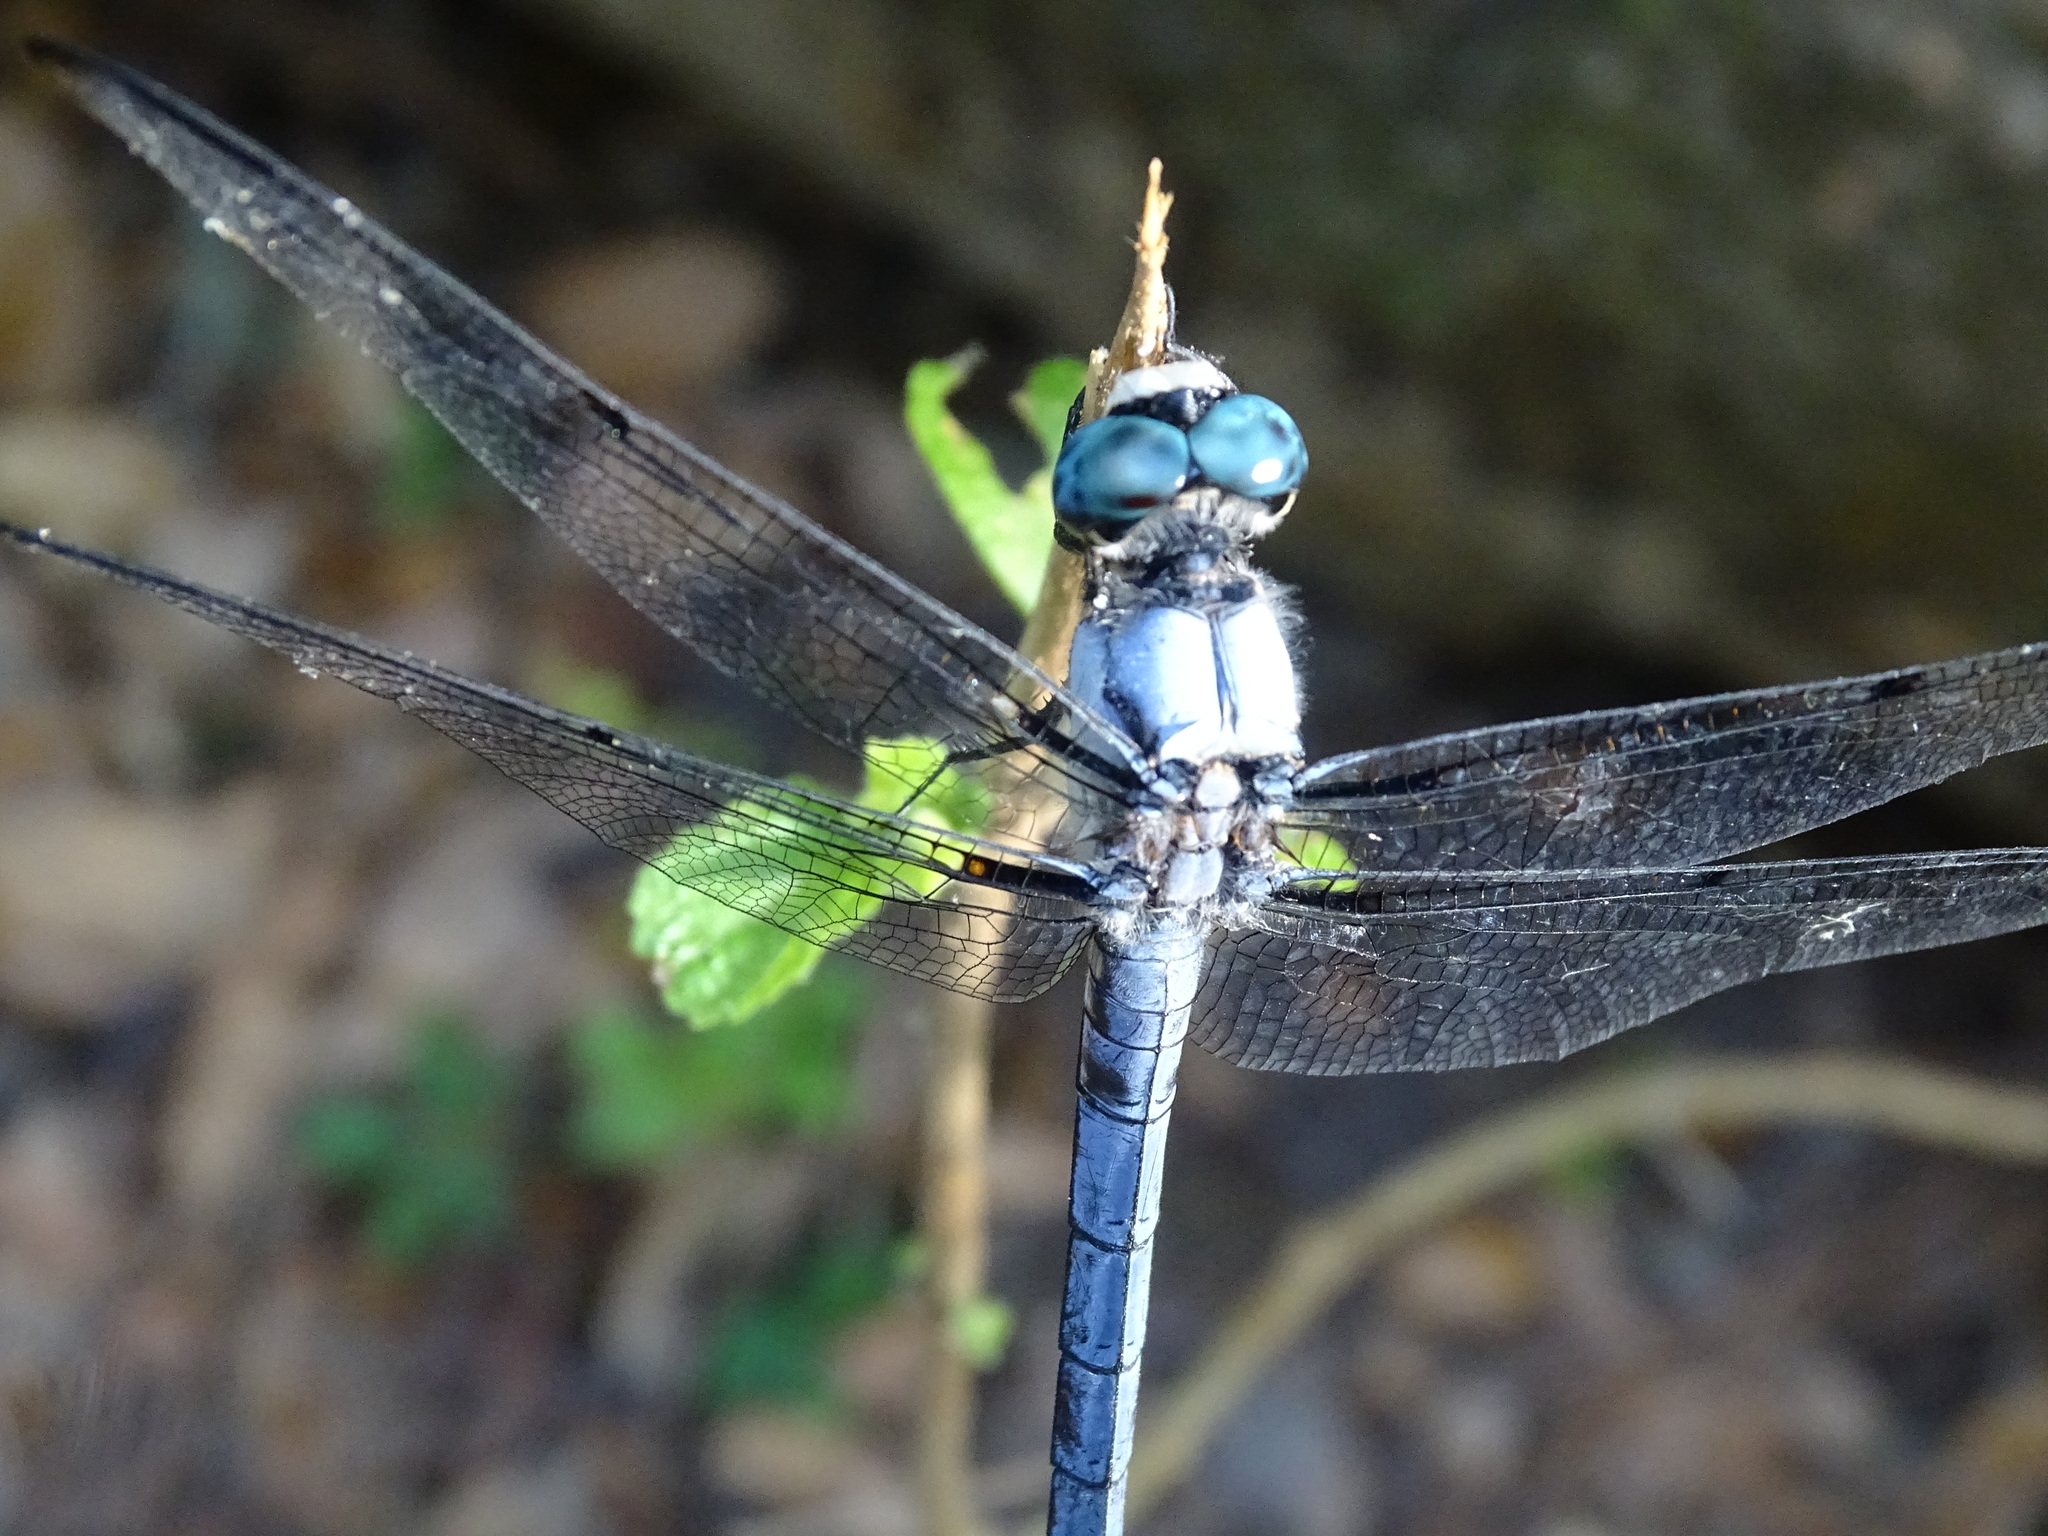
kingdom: Animalia
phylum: Arthropoda
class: Insecta
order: Odonata
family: Libellulidae
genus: Libellula
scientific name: Libellula vibrans
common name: Great blue skimmer
